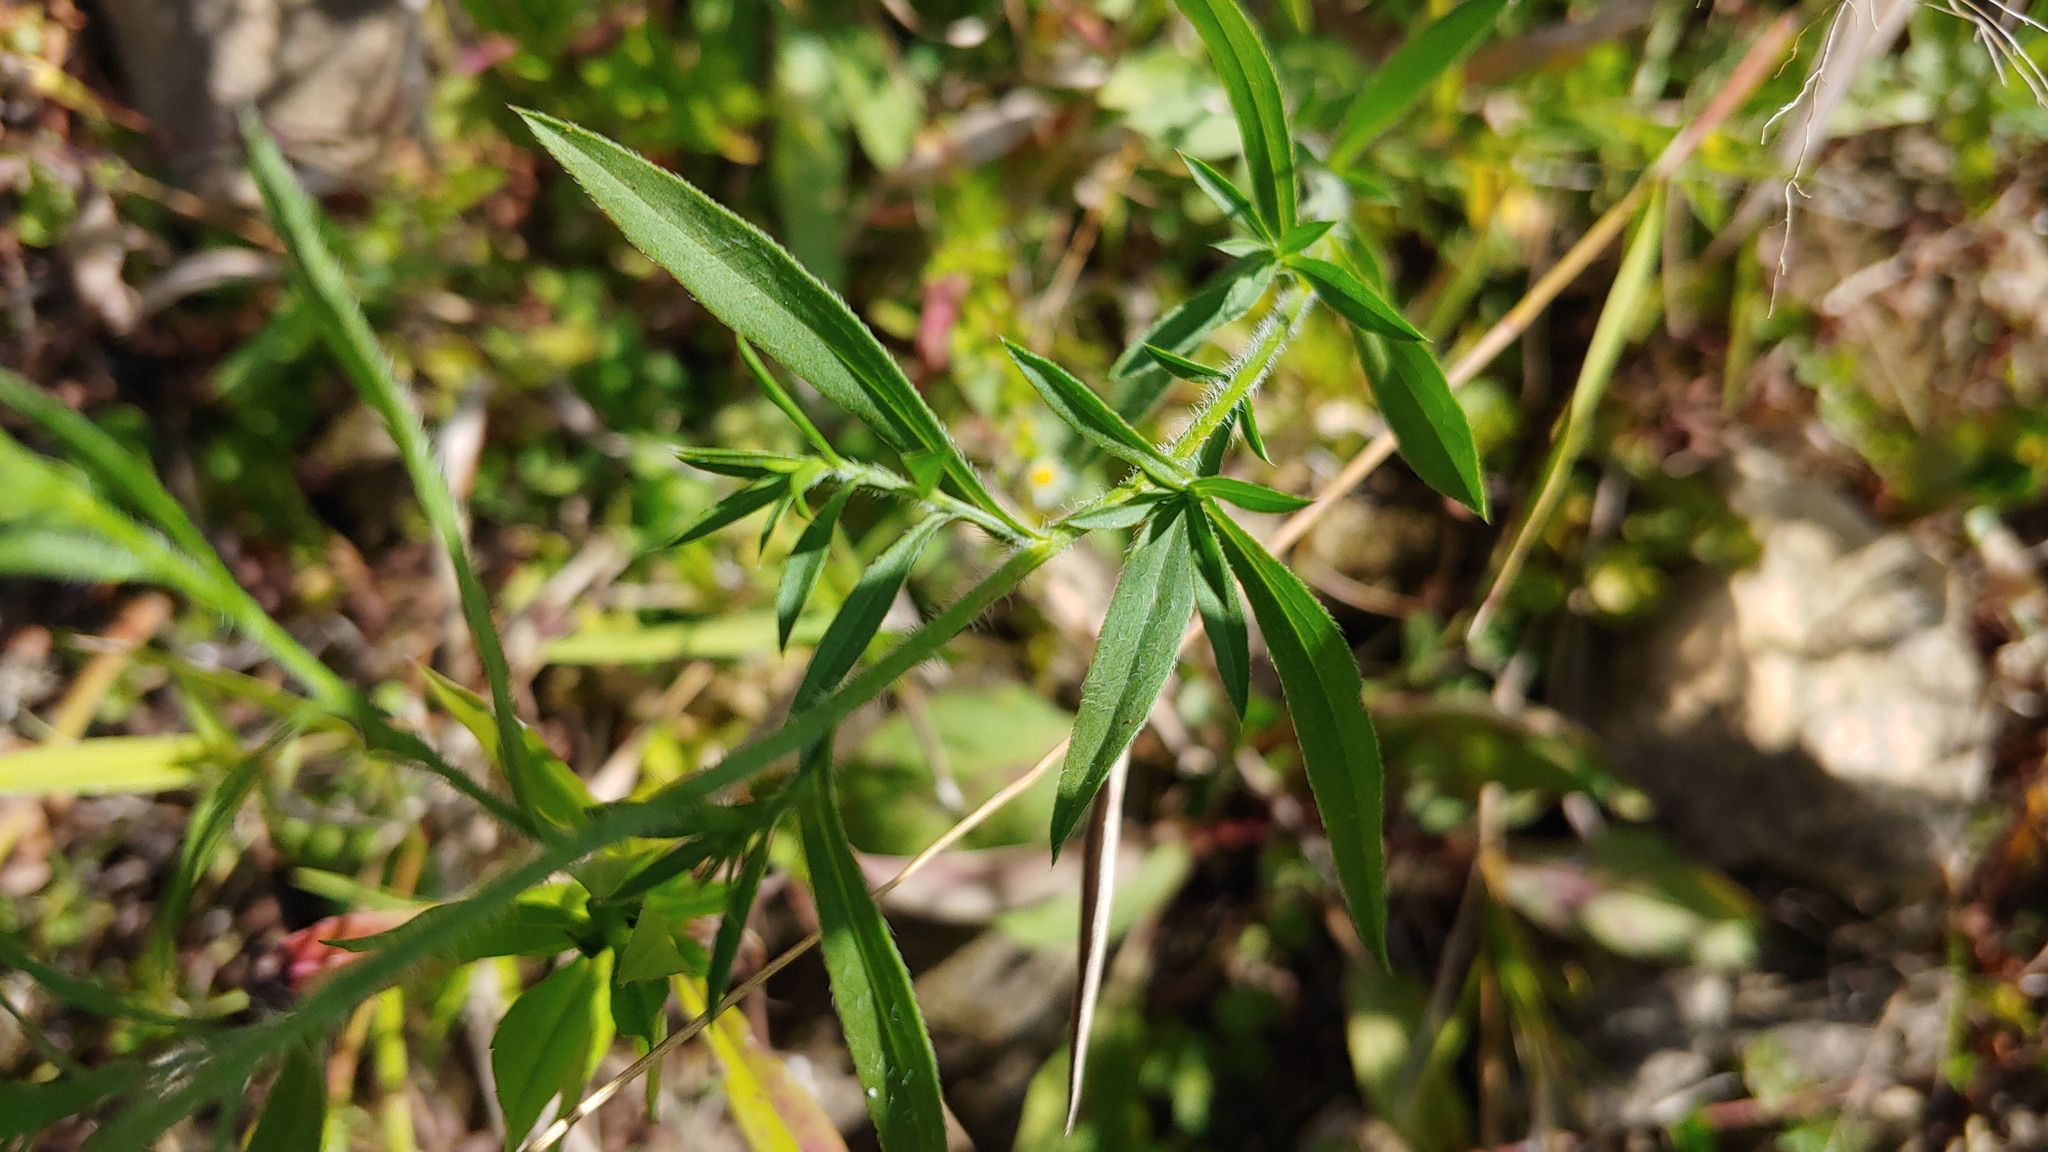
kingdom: Plantae
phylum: Tracheophyta
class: Magnoliopsida
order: Asterales
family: Asteraceae
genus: Symphyotrichum
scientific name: Symphyotrichum pilosum
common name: Awl aster
